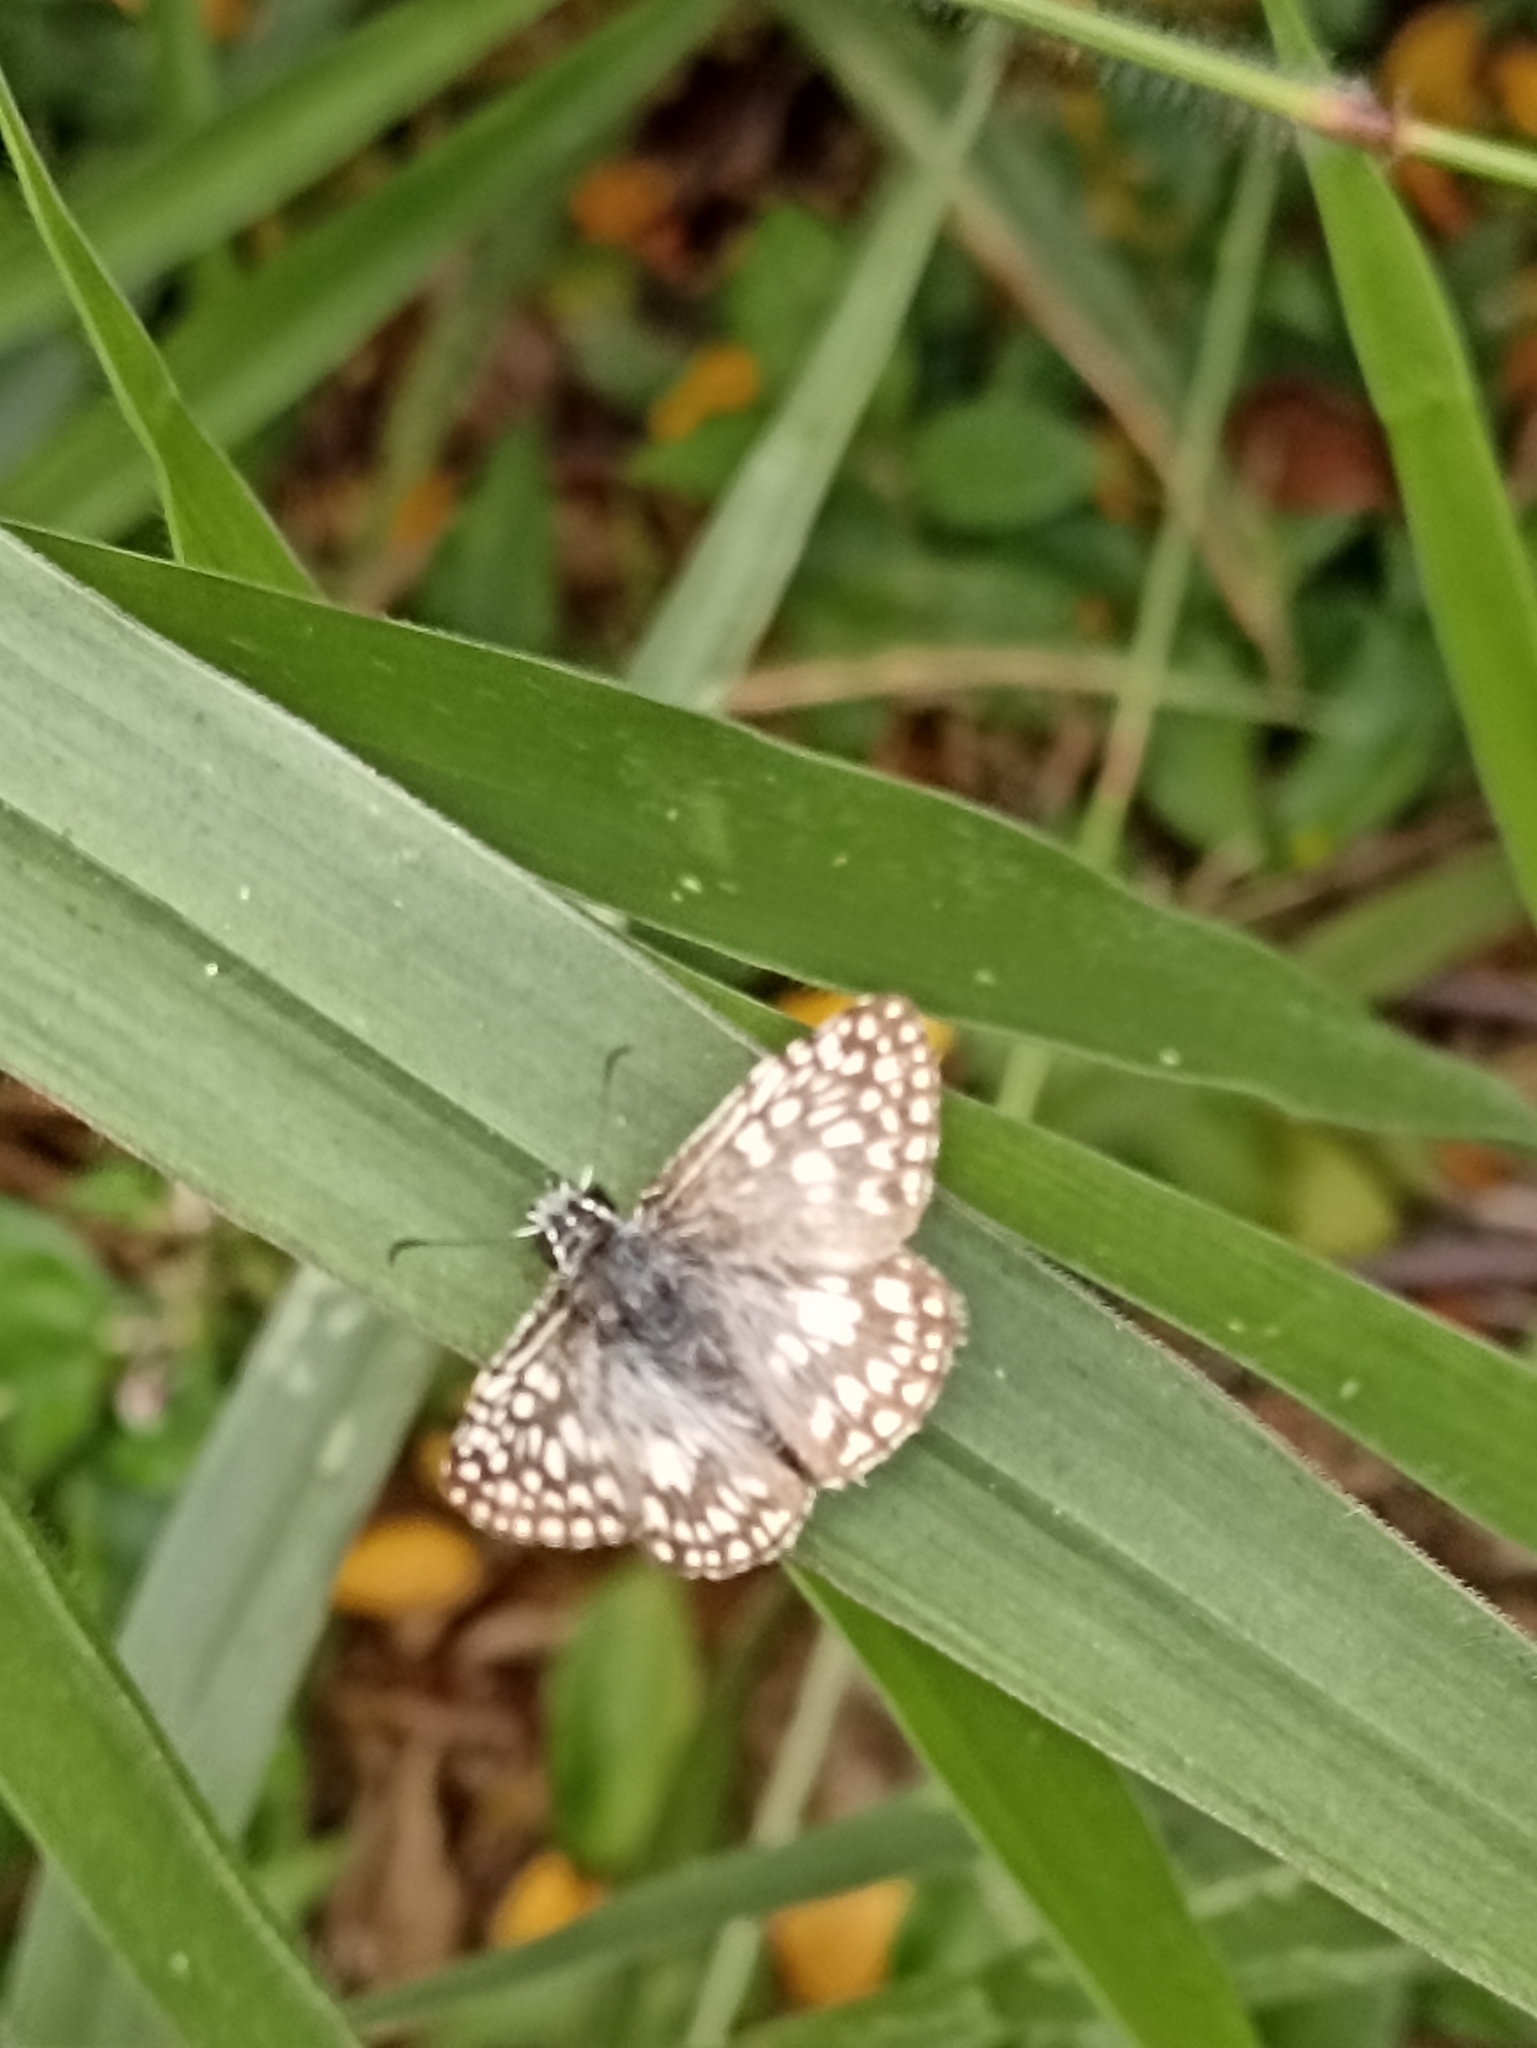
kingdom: Animalia
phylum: Arthropoda
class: Insecta
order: Lepidoptera
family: Hesperiidae
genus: Pyrgus
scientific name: Pyrgus oileus
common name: Tropical checkered-skipper
